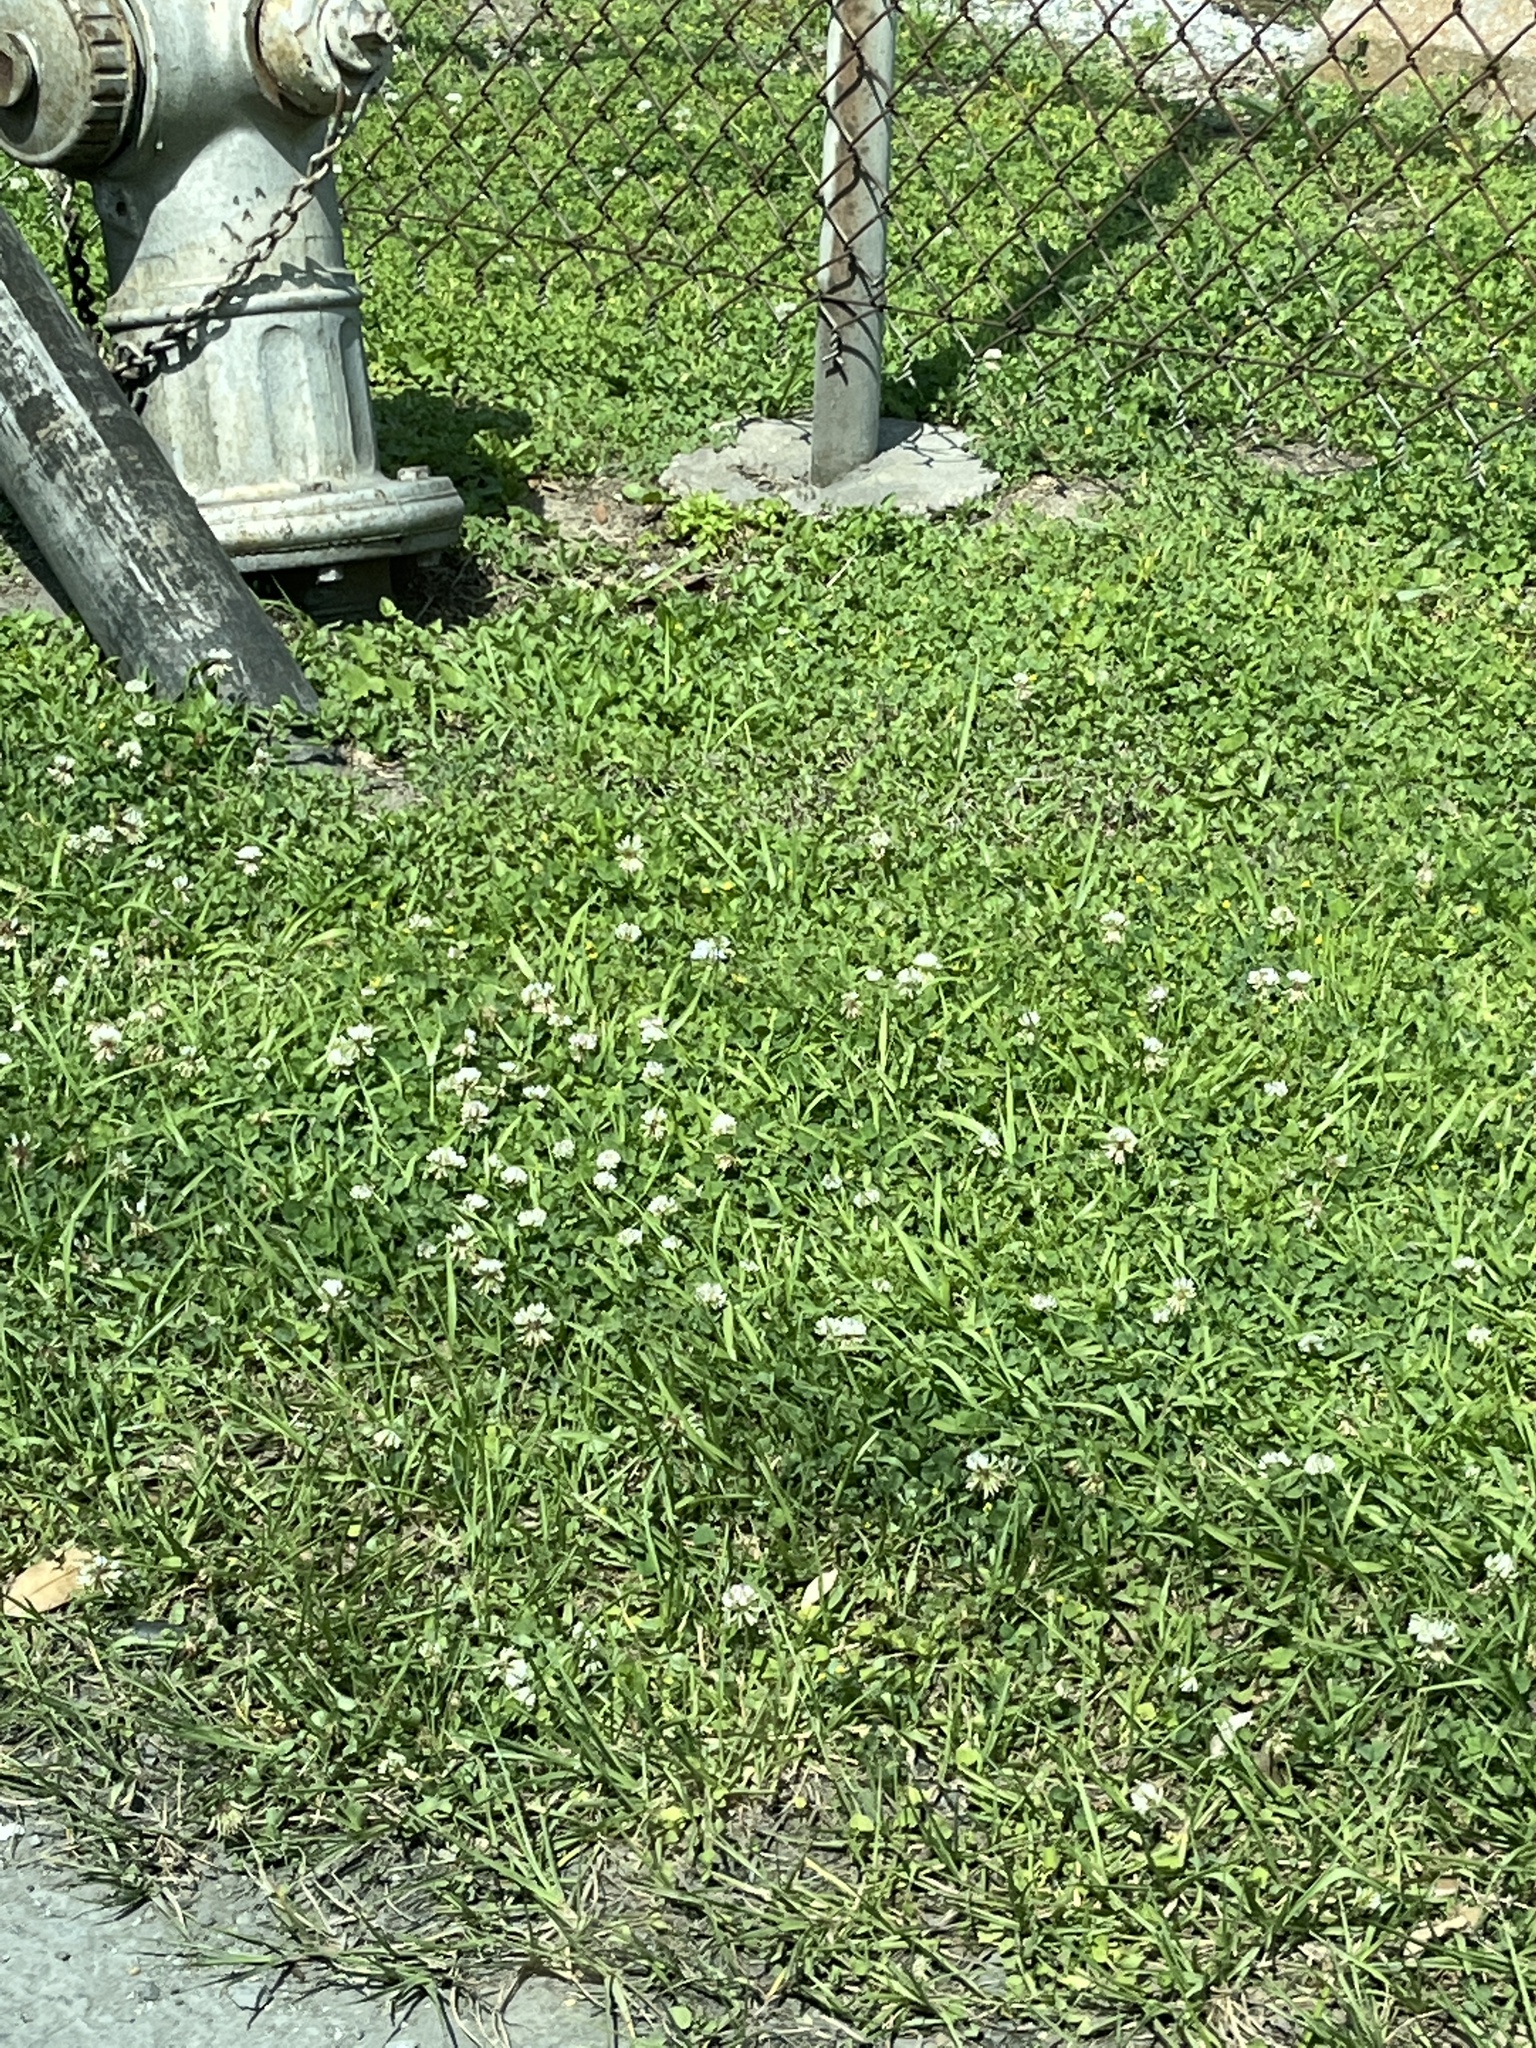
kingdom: Plantae
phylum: Tracheophyta
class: Magnoliopsida
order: Fabales
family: Fabaceae
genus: Trifolium
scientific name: Trifolium repens
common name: White clover
